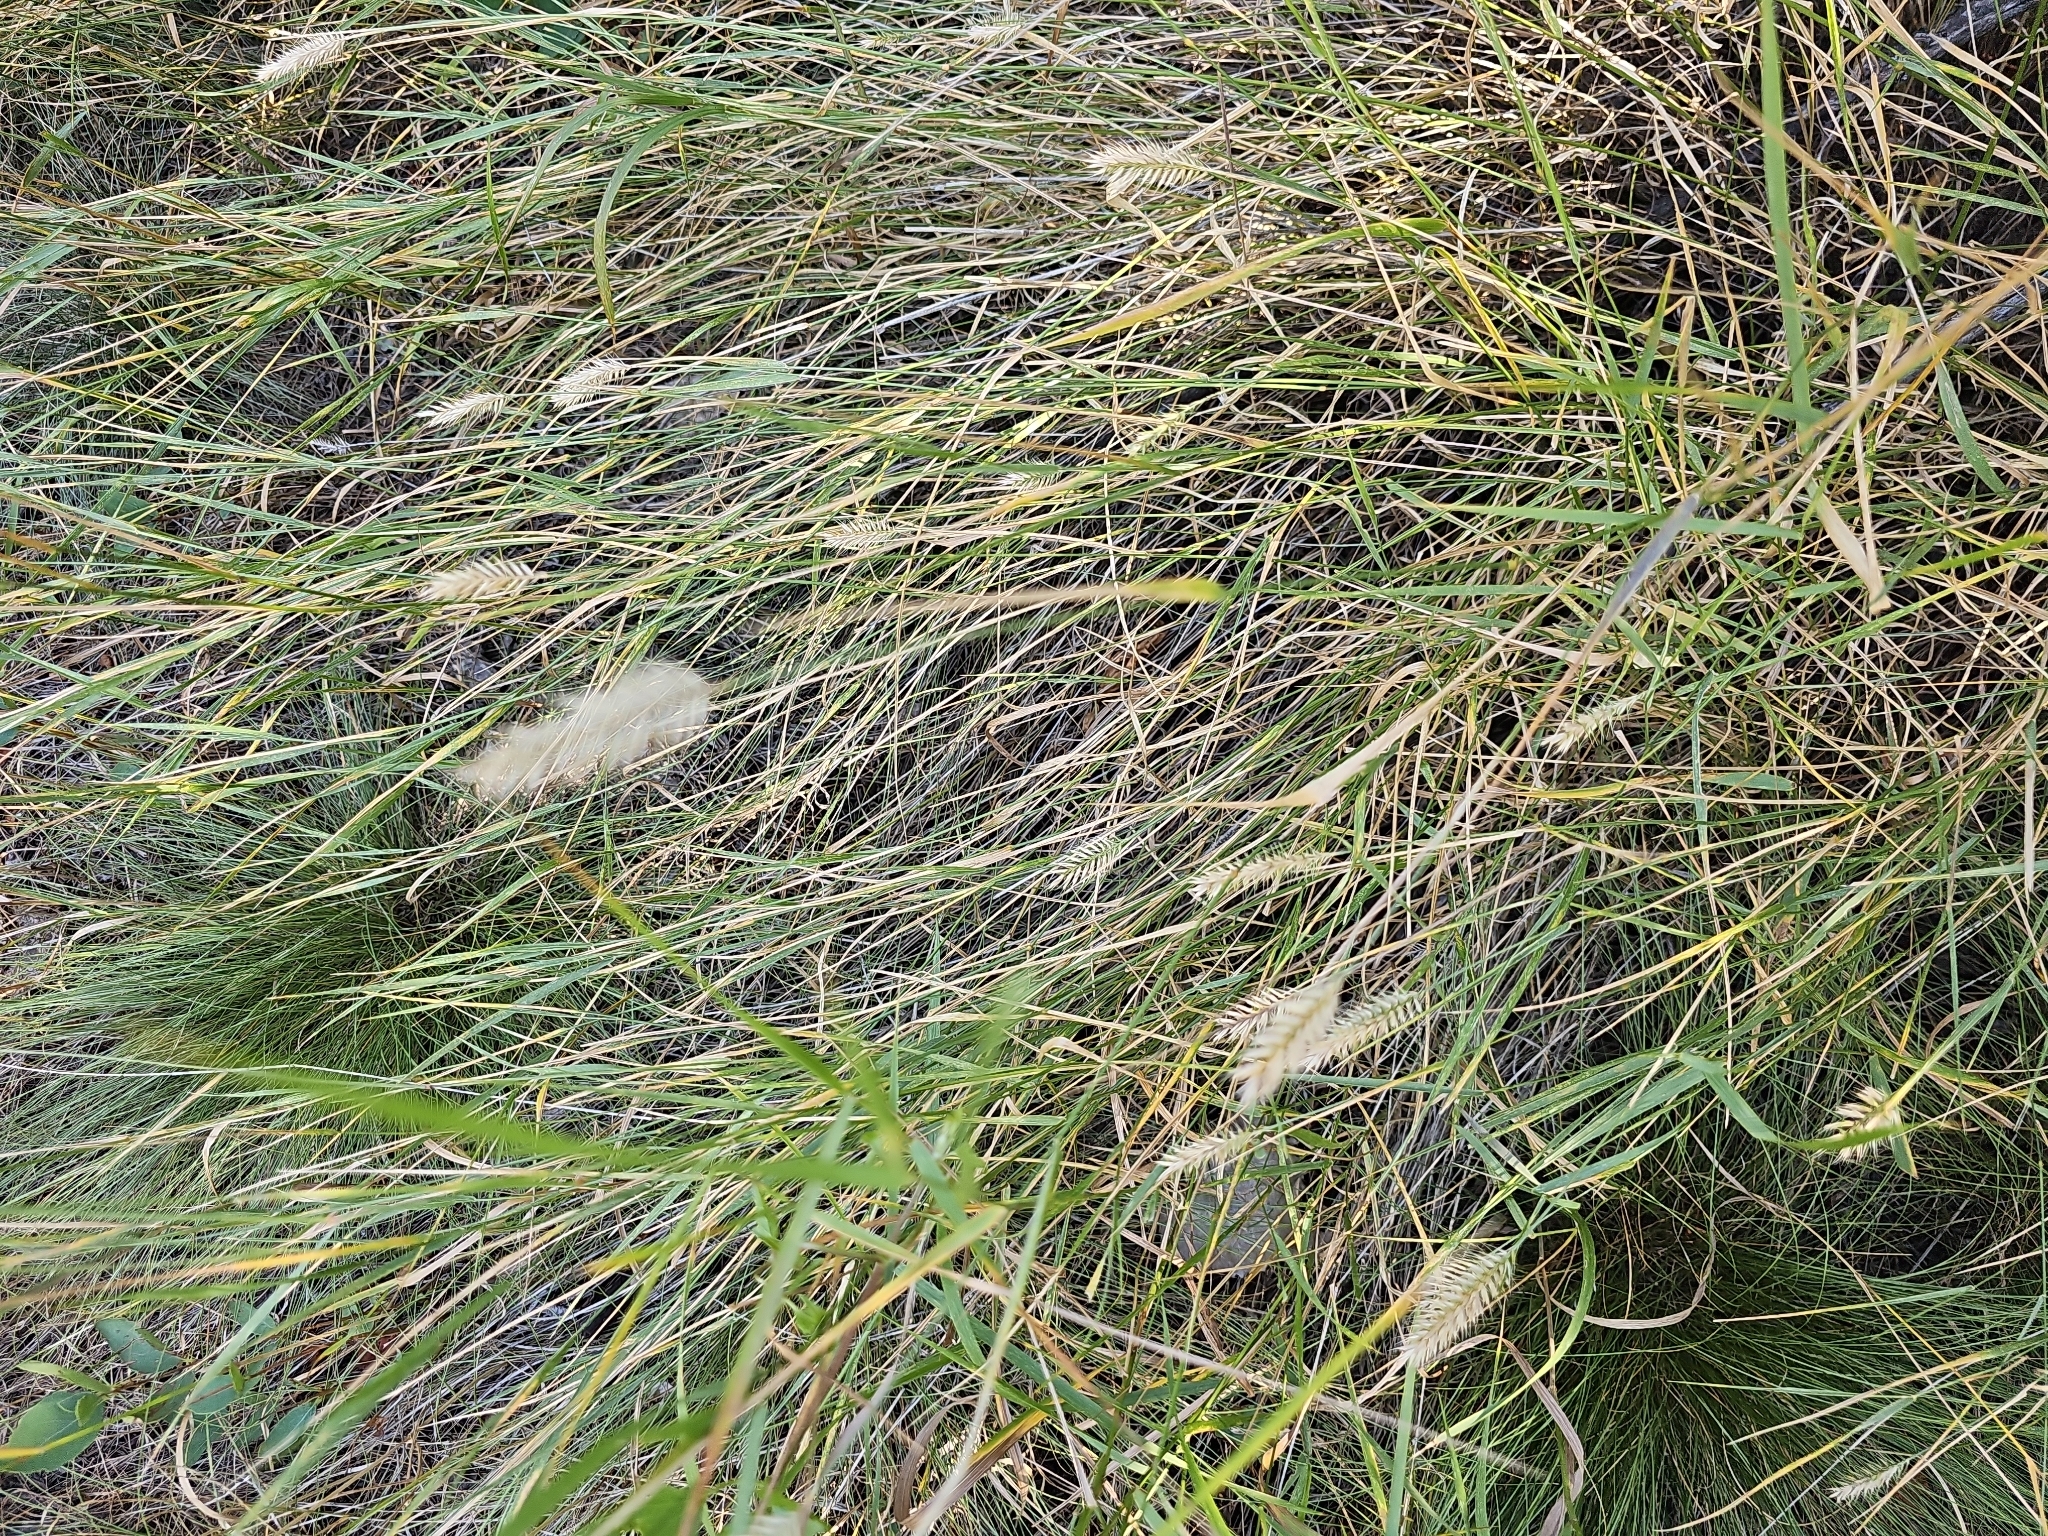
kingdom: Plantae
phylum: Tracheophyta
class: Liliopsida
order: Poales
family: Poaceae
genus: Agropyron
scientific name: Agropyron cristatum
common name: Crested wheatgrass
